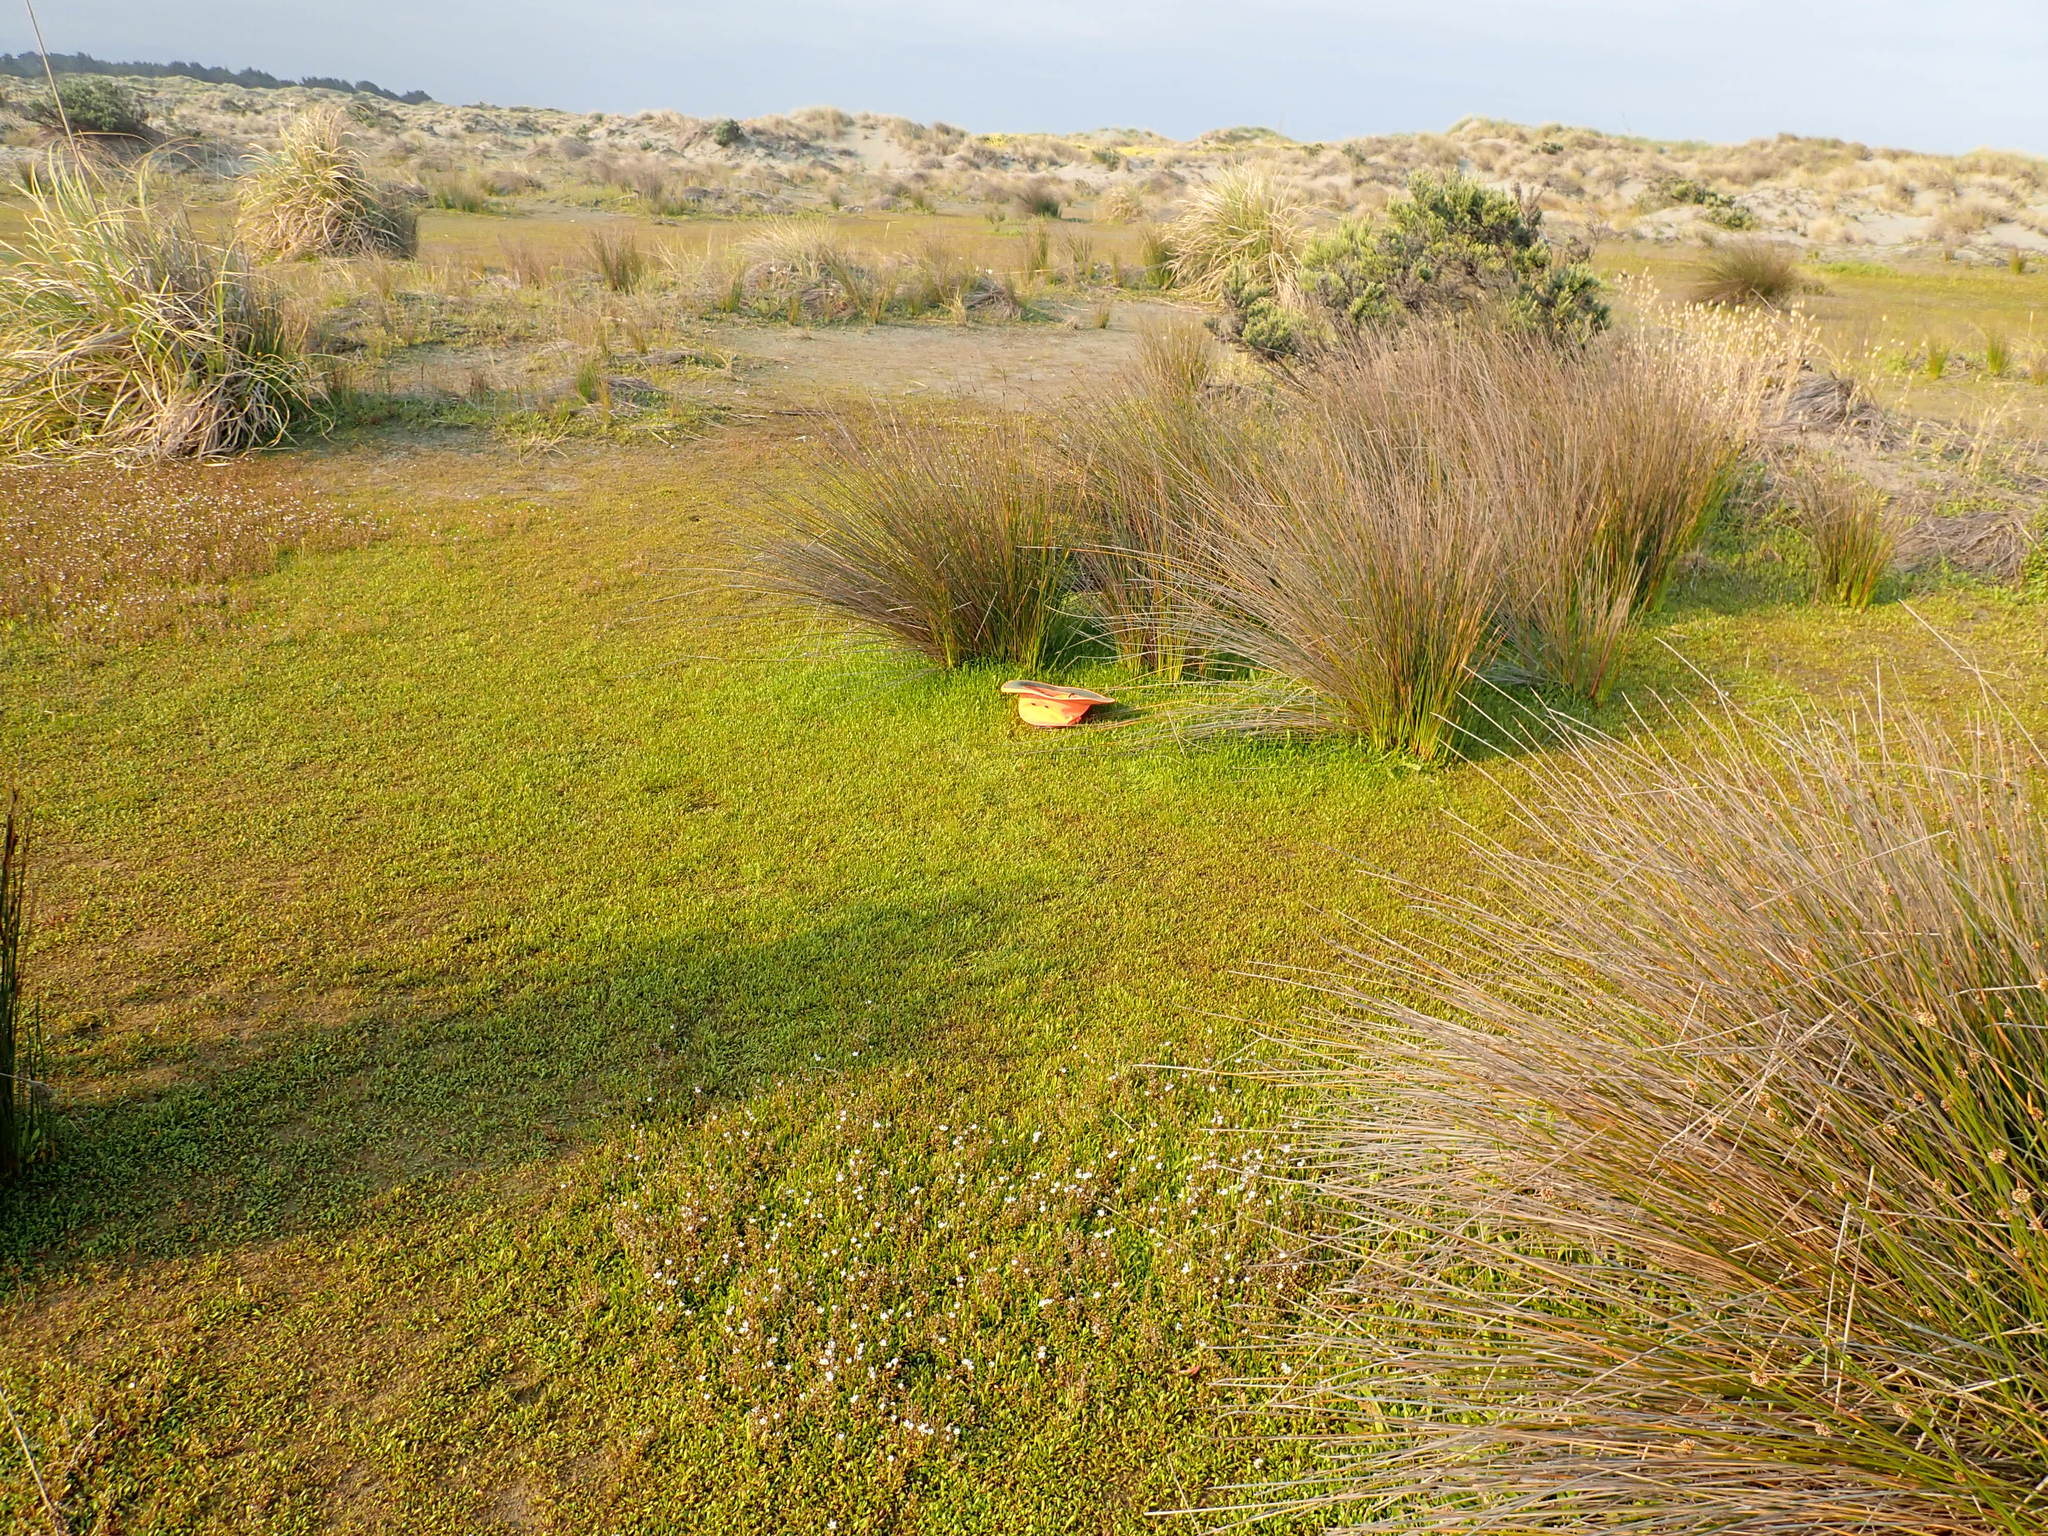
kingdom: Plantae
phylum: Tracheophyta
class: Magnoliopsida
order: Asterales
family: Goodeniaceae
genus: Goodenia
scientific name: Goodenia radicans
